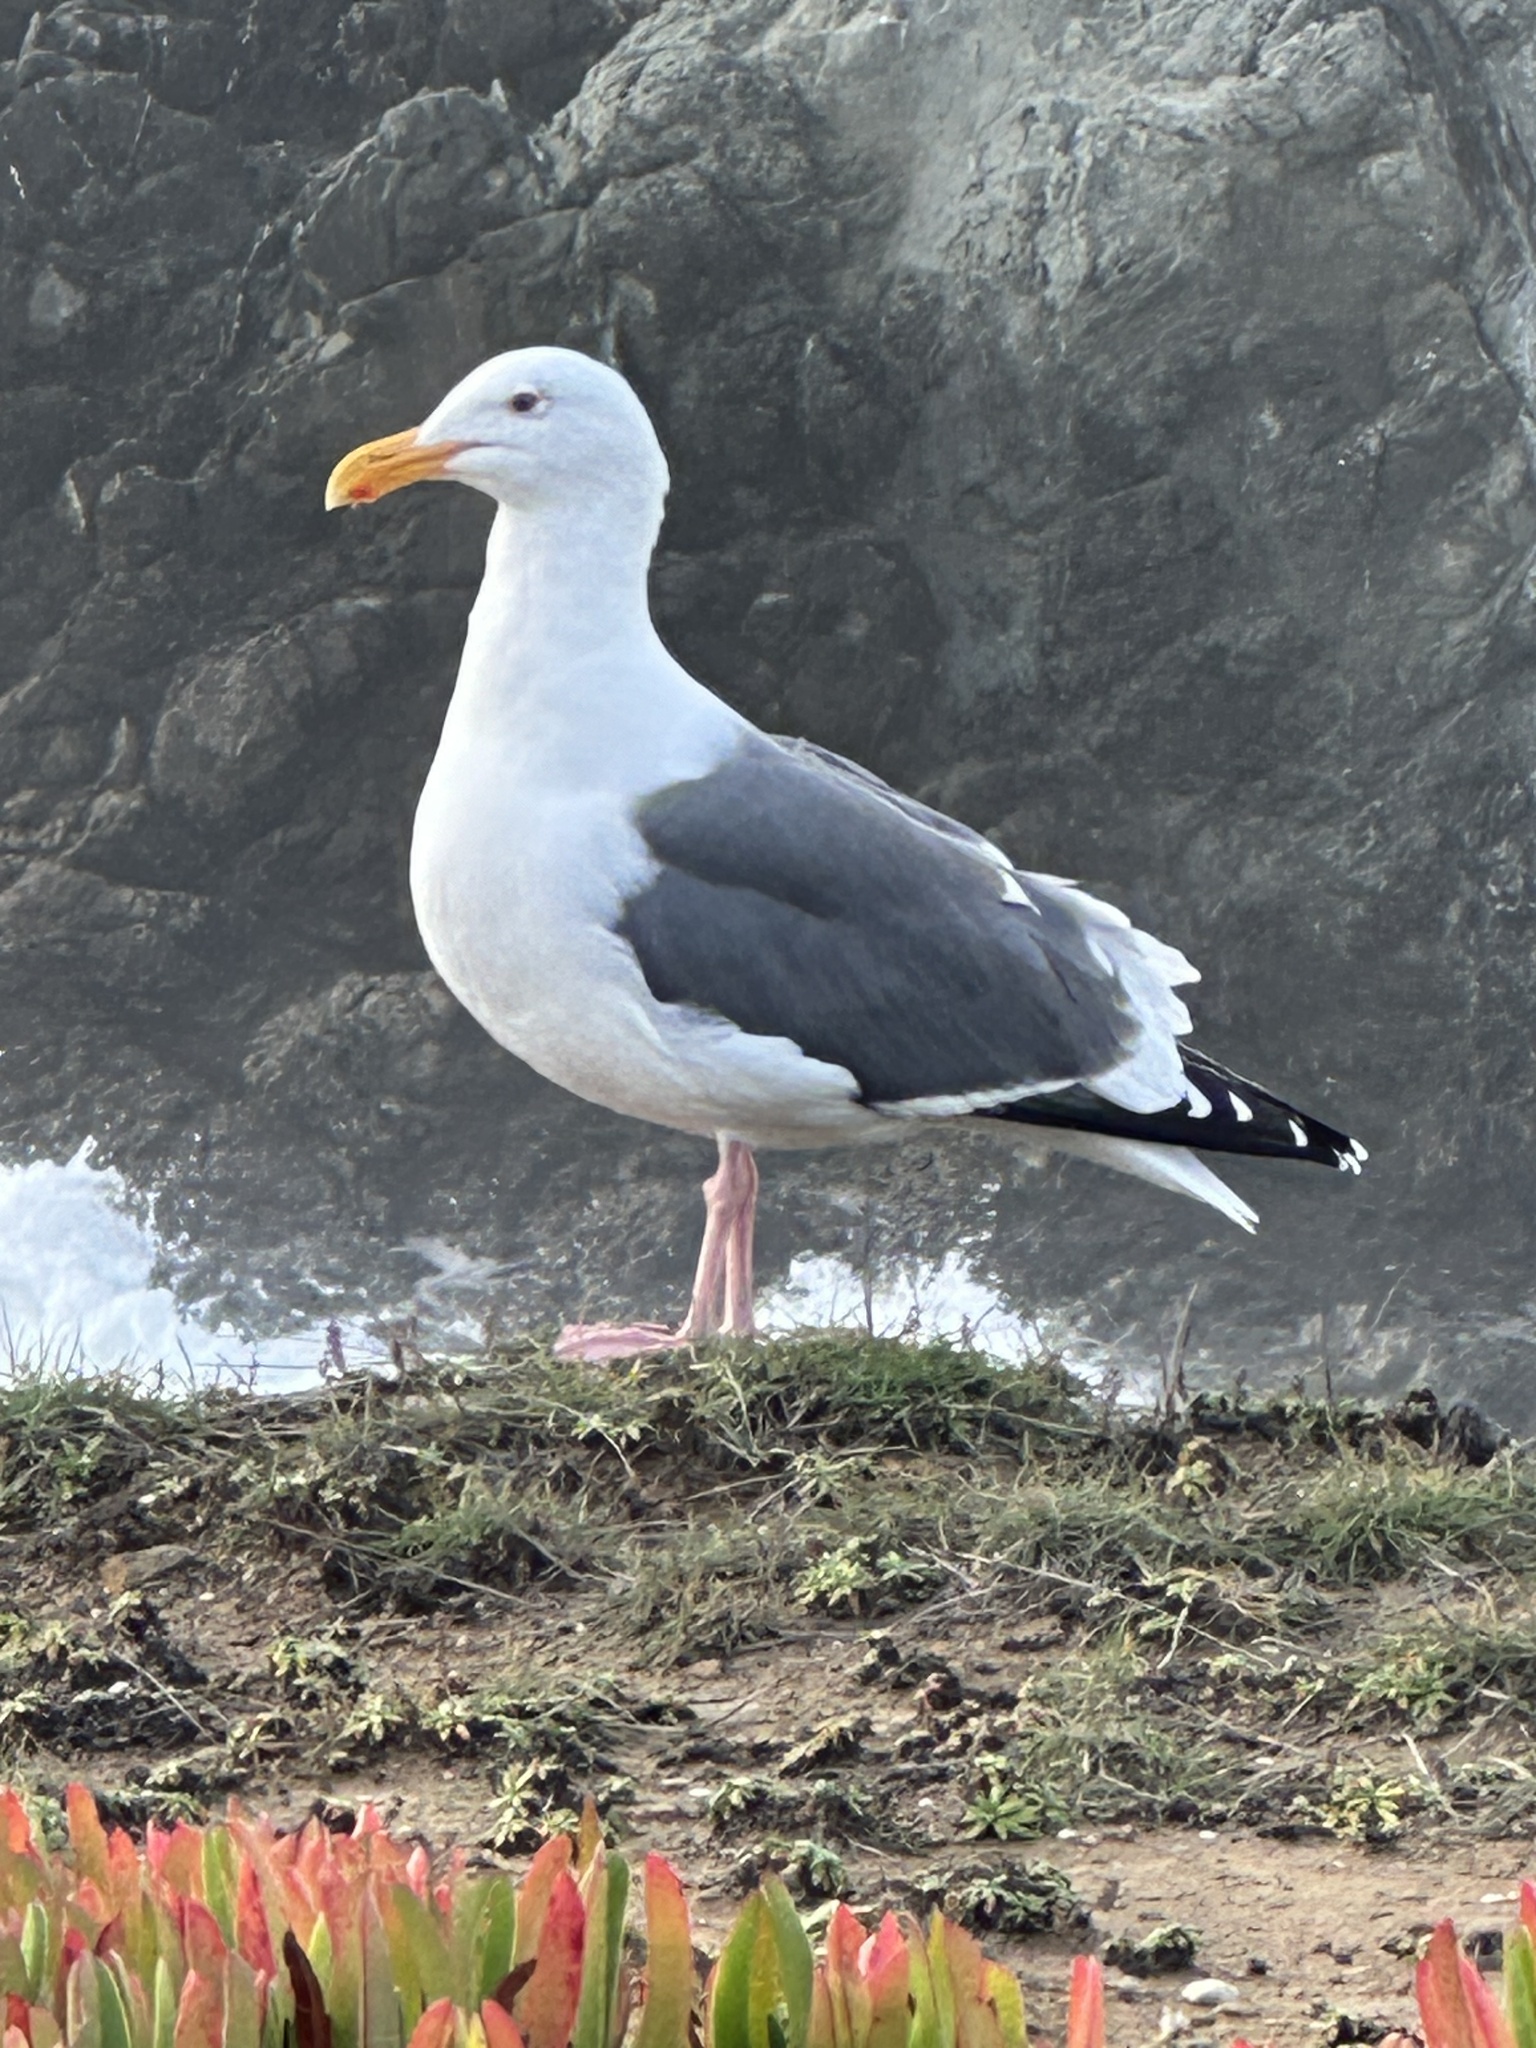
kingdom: Animalia
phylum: Chordata
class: Aves
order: Charadriiformes
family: Laridae
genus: Larus
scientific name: Larus occidentalis
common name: Western gull
